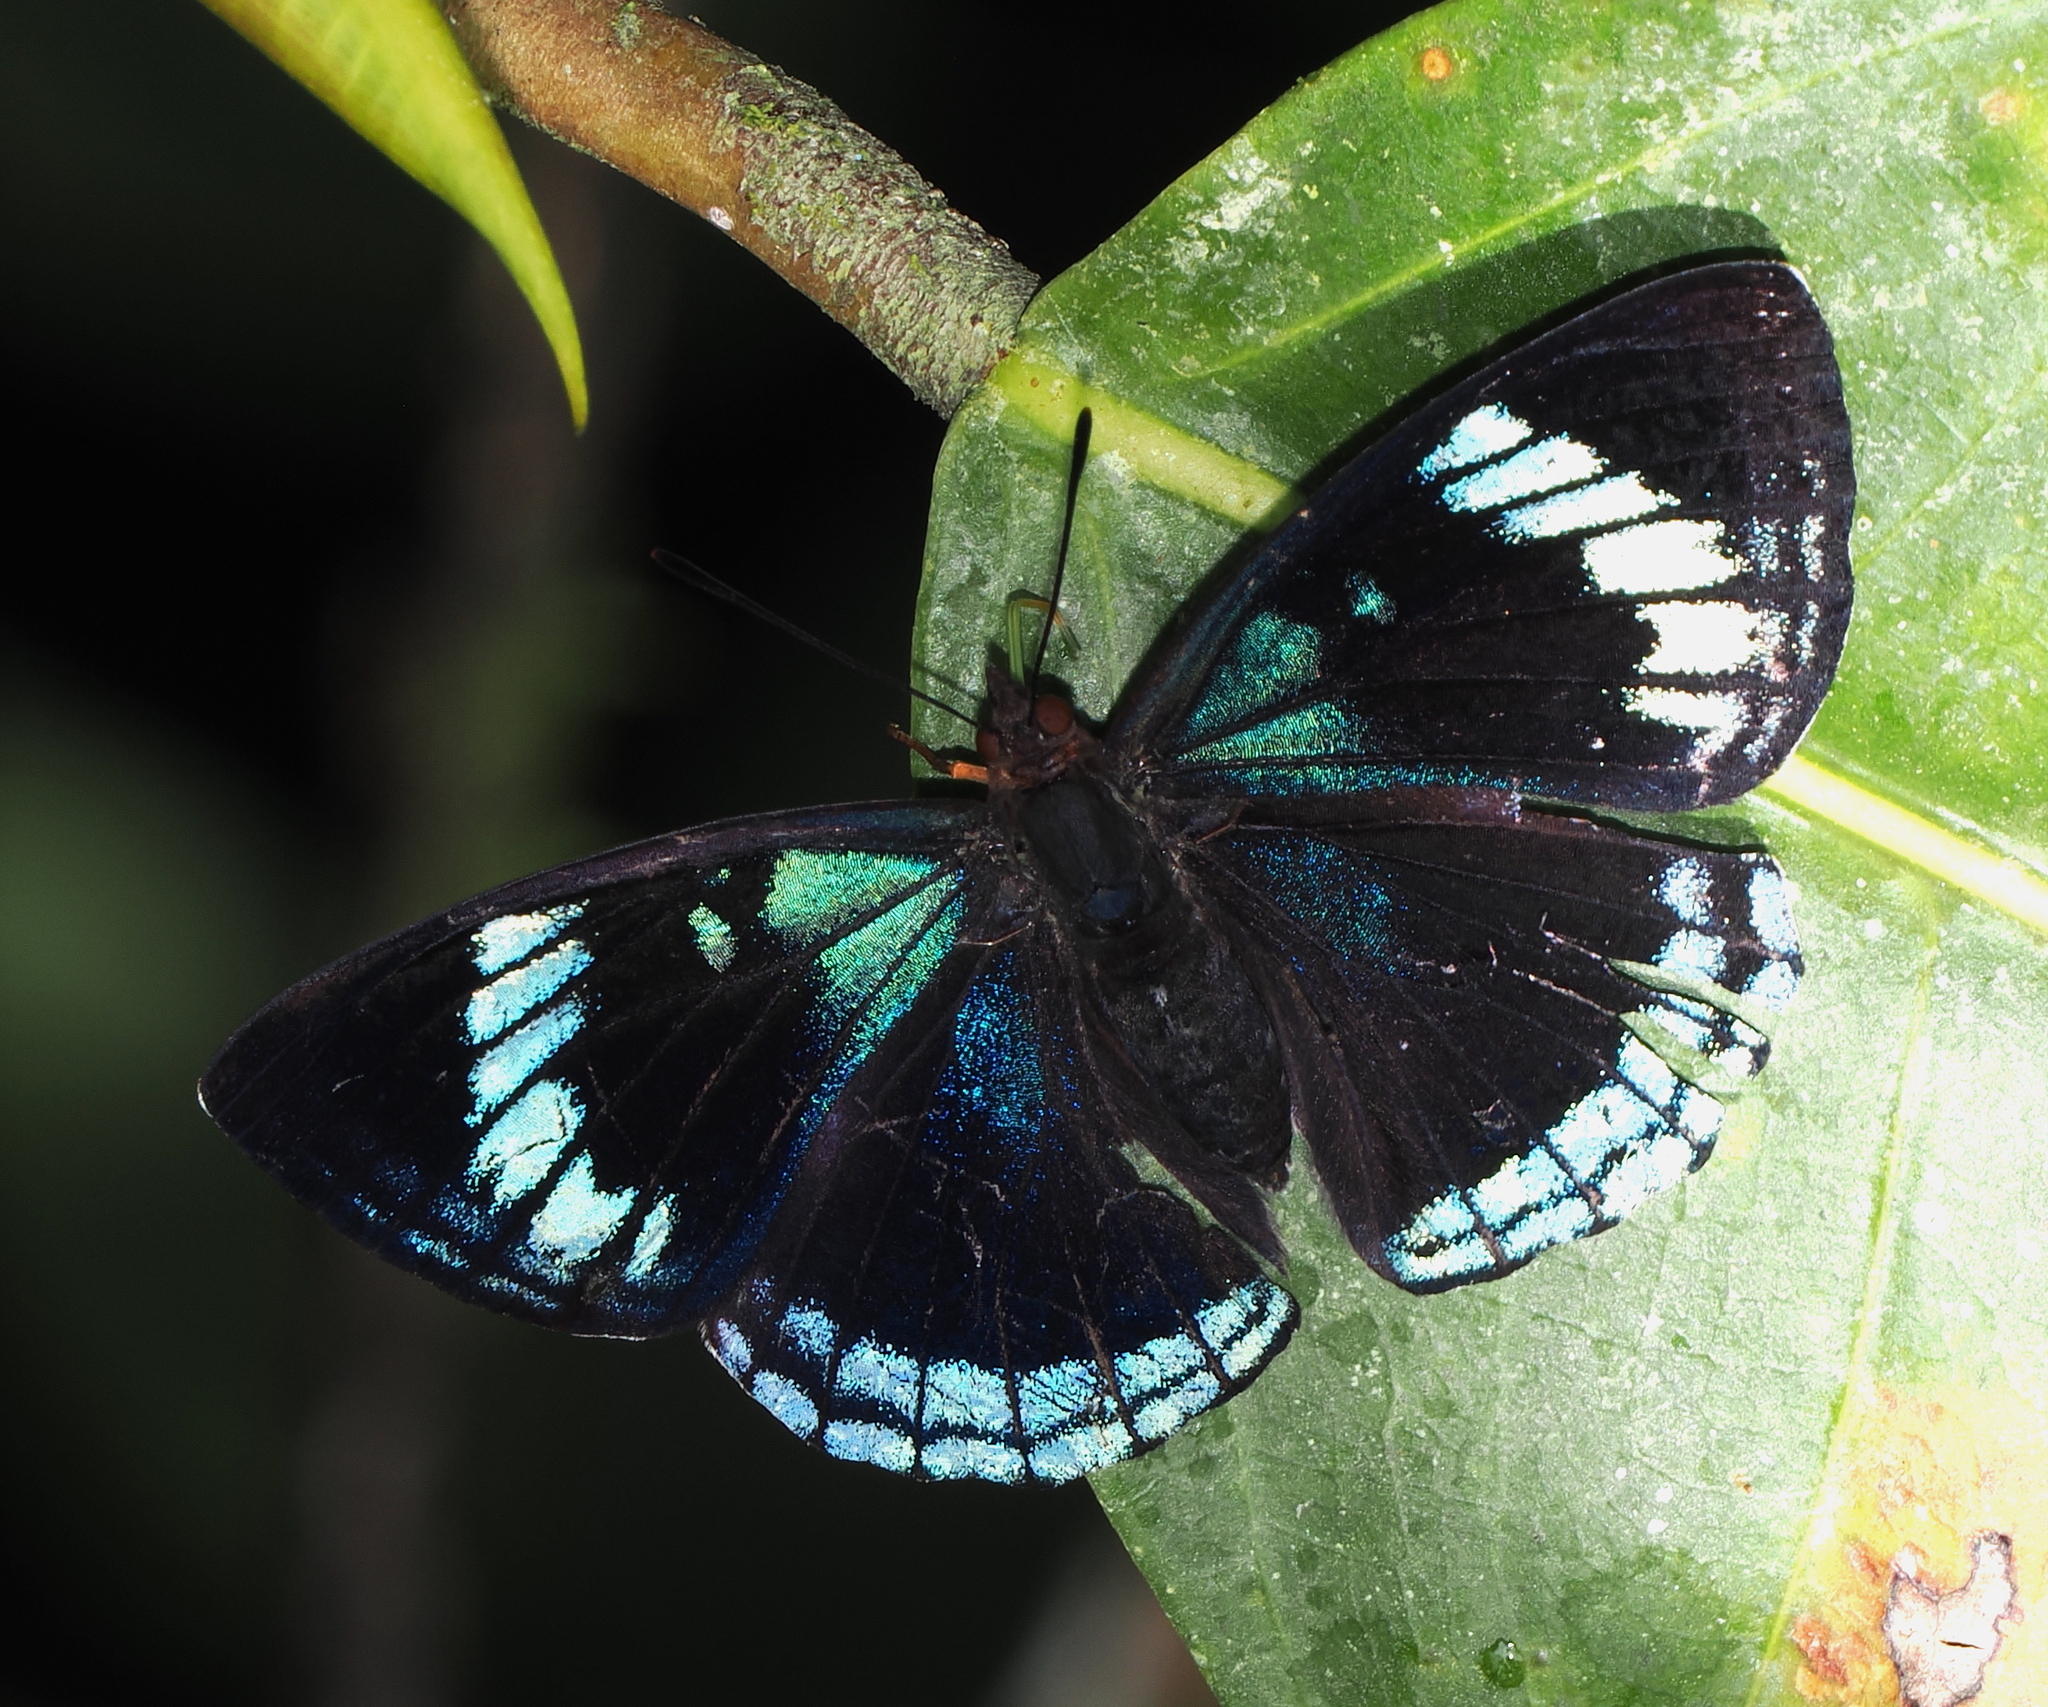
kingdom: Animalia
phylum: Arthropoda
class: Insecta
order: Lepidoptera
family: Nymphalidae
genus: Doxocopa
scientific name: Doxocopa zunilda
